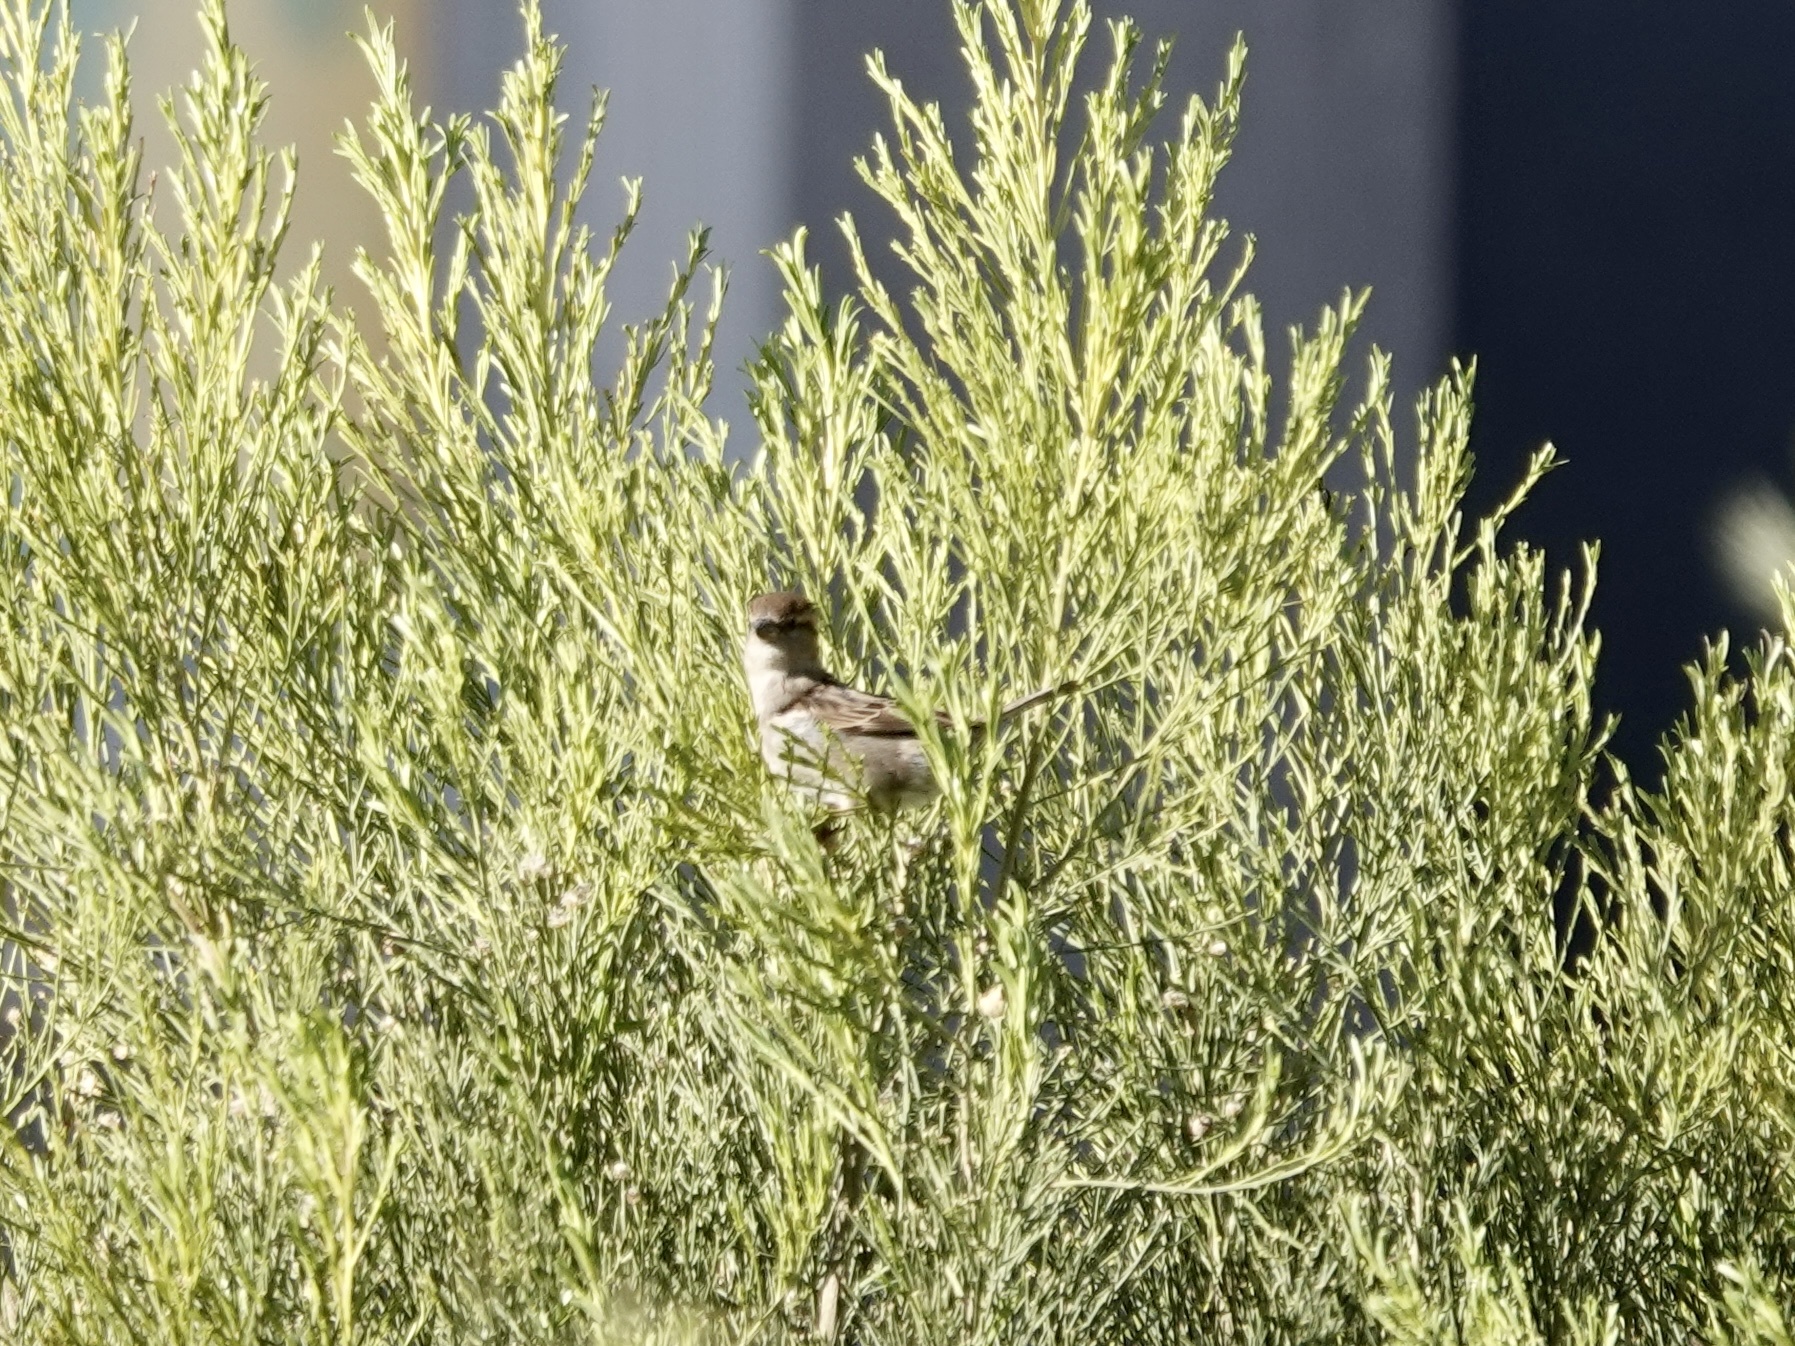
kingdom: Animalia
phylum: Chordata
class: Aves
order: Passeriformes
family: Passeridae
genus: Passer
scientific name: Passer domesticus
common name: House sparrow
